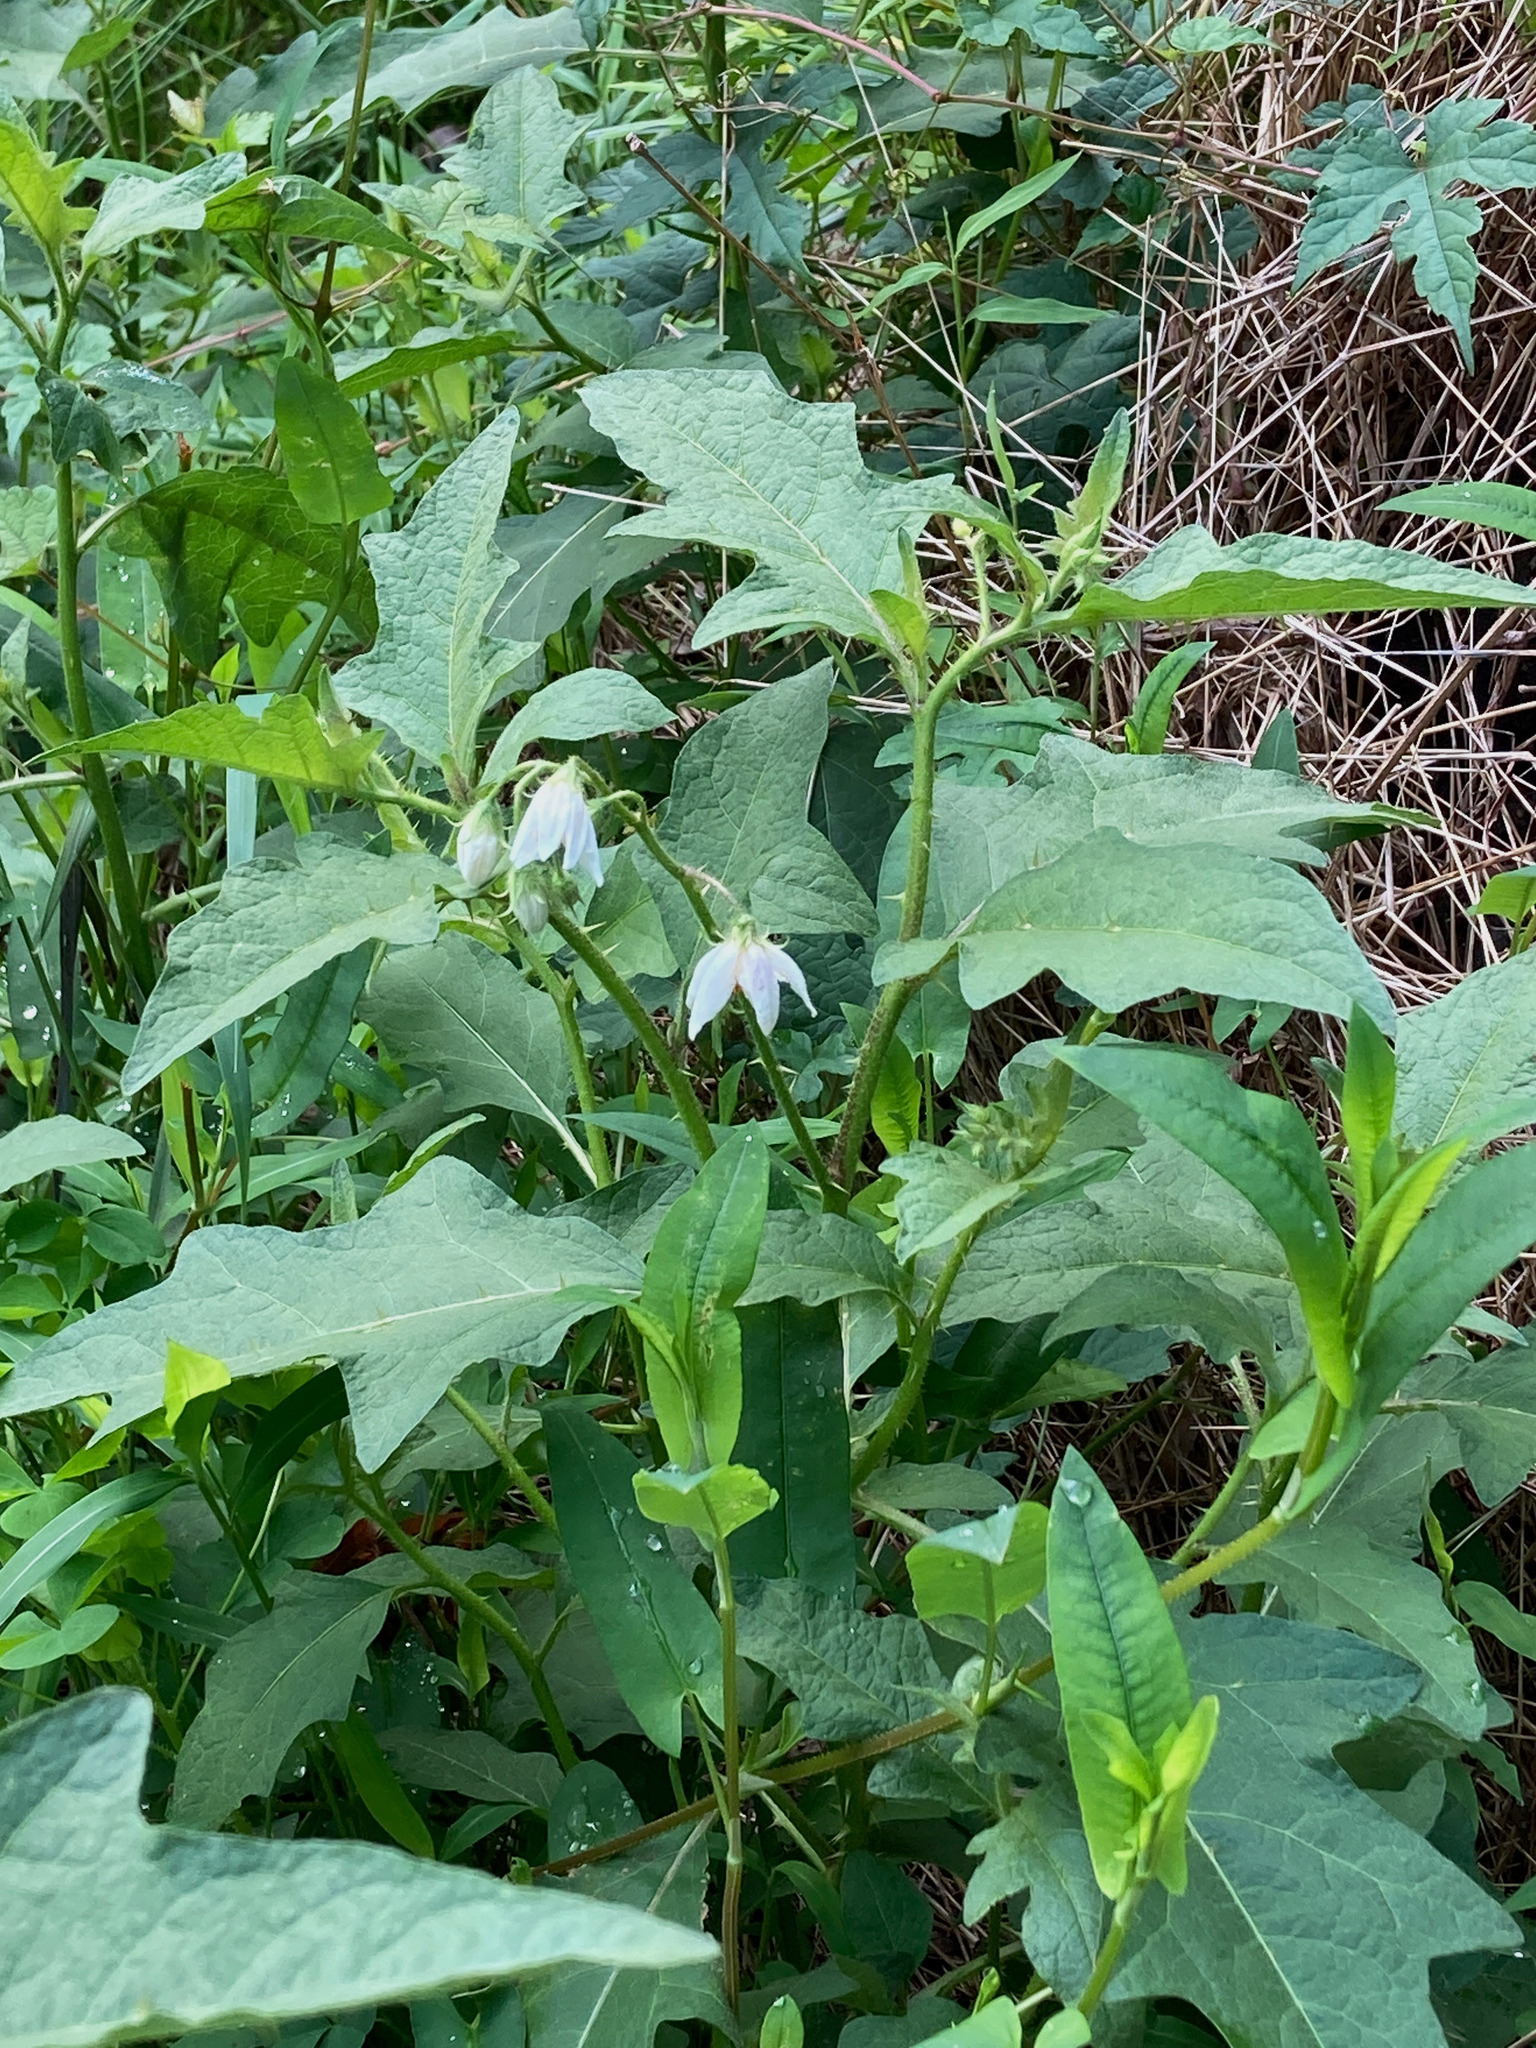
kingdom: Plantae
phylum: Tracheophyta
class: Magnoliopsida
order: Solanales
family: Solanaceae
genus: Solanum
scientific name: Solanum carolinense
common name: Horse-nettle
